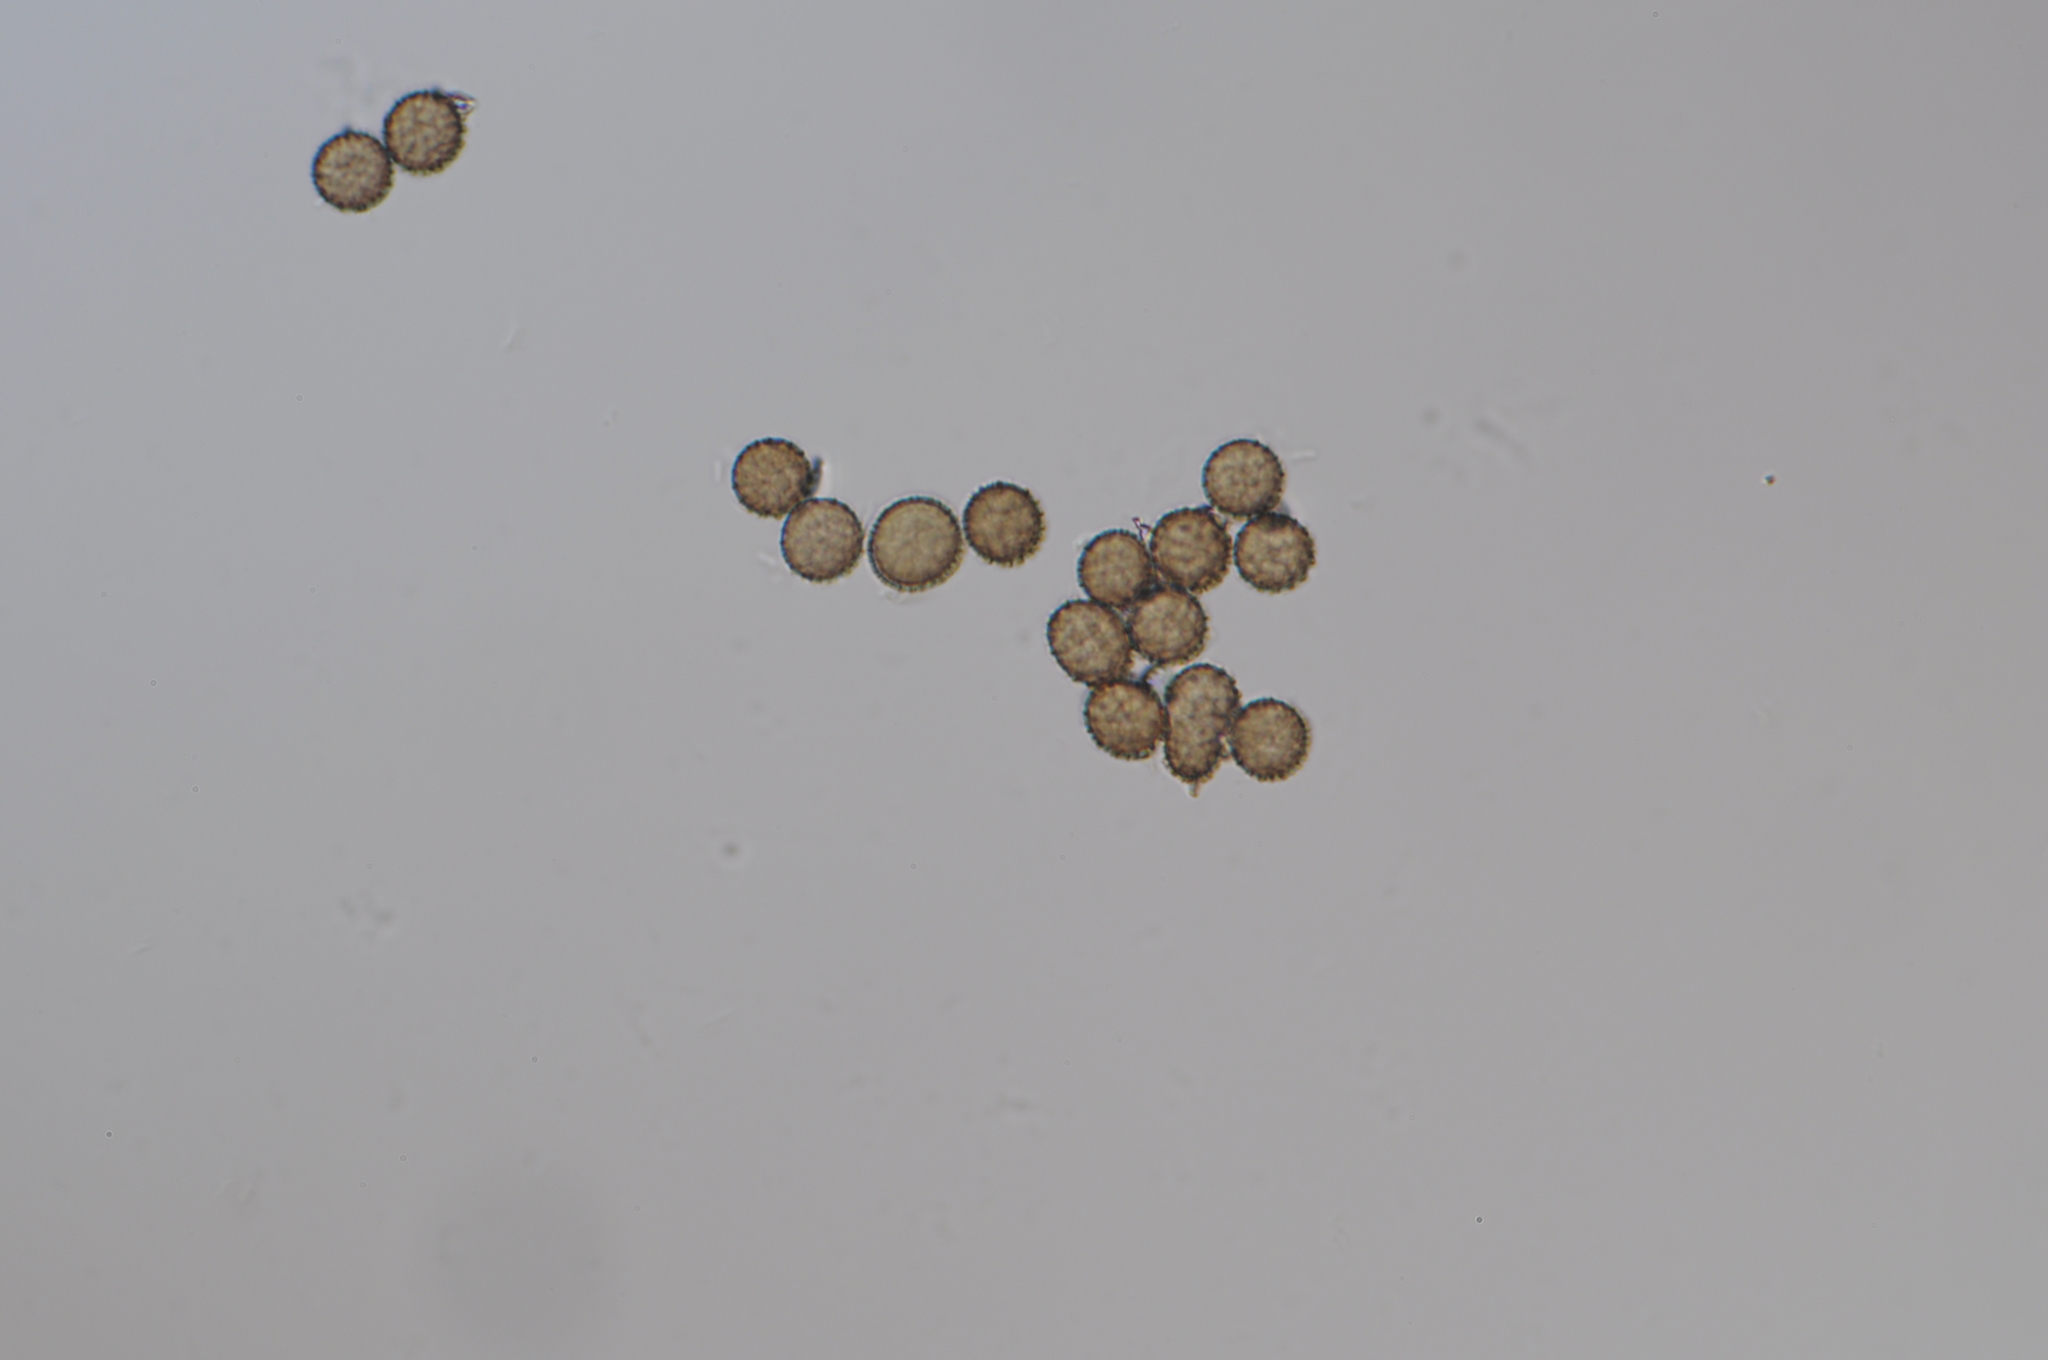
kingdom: Fungi
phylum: Basidiomycota
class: Ustilaginomycetes
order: Ustilaginales
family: Ustilaginaceae
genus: Mycosarcoma
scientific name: Mycosarcoma maydis
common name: Corn smut
